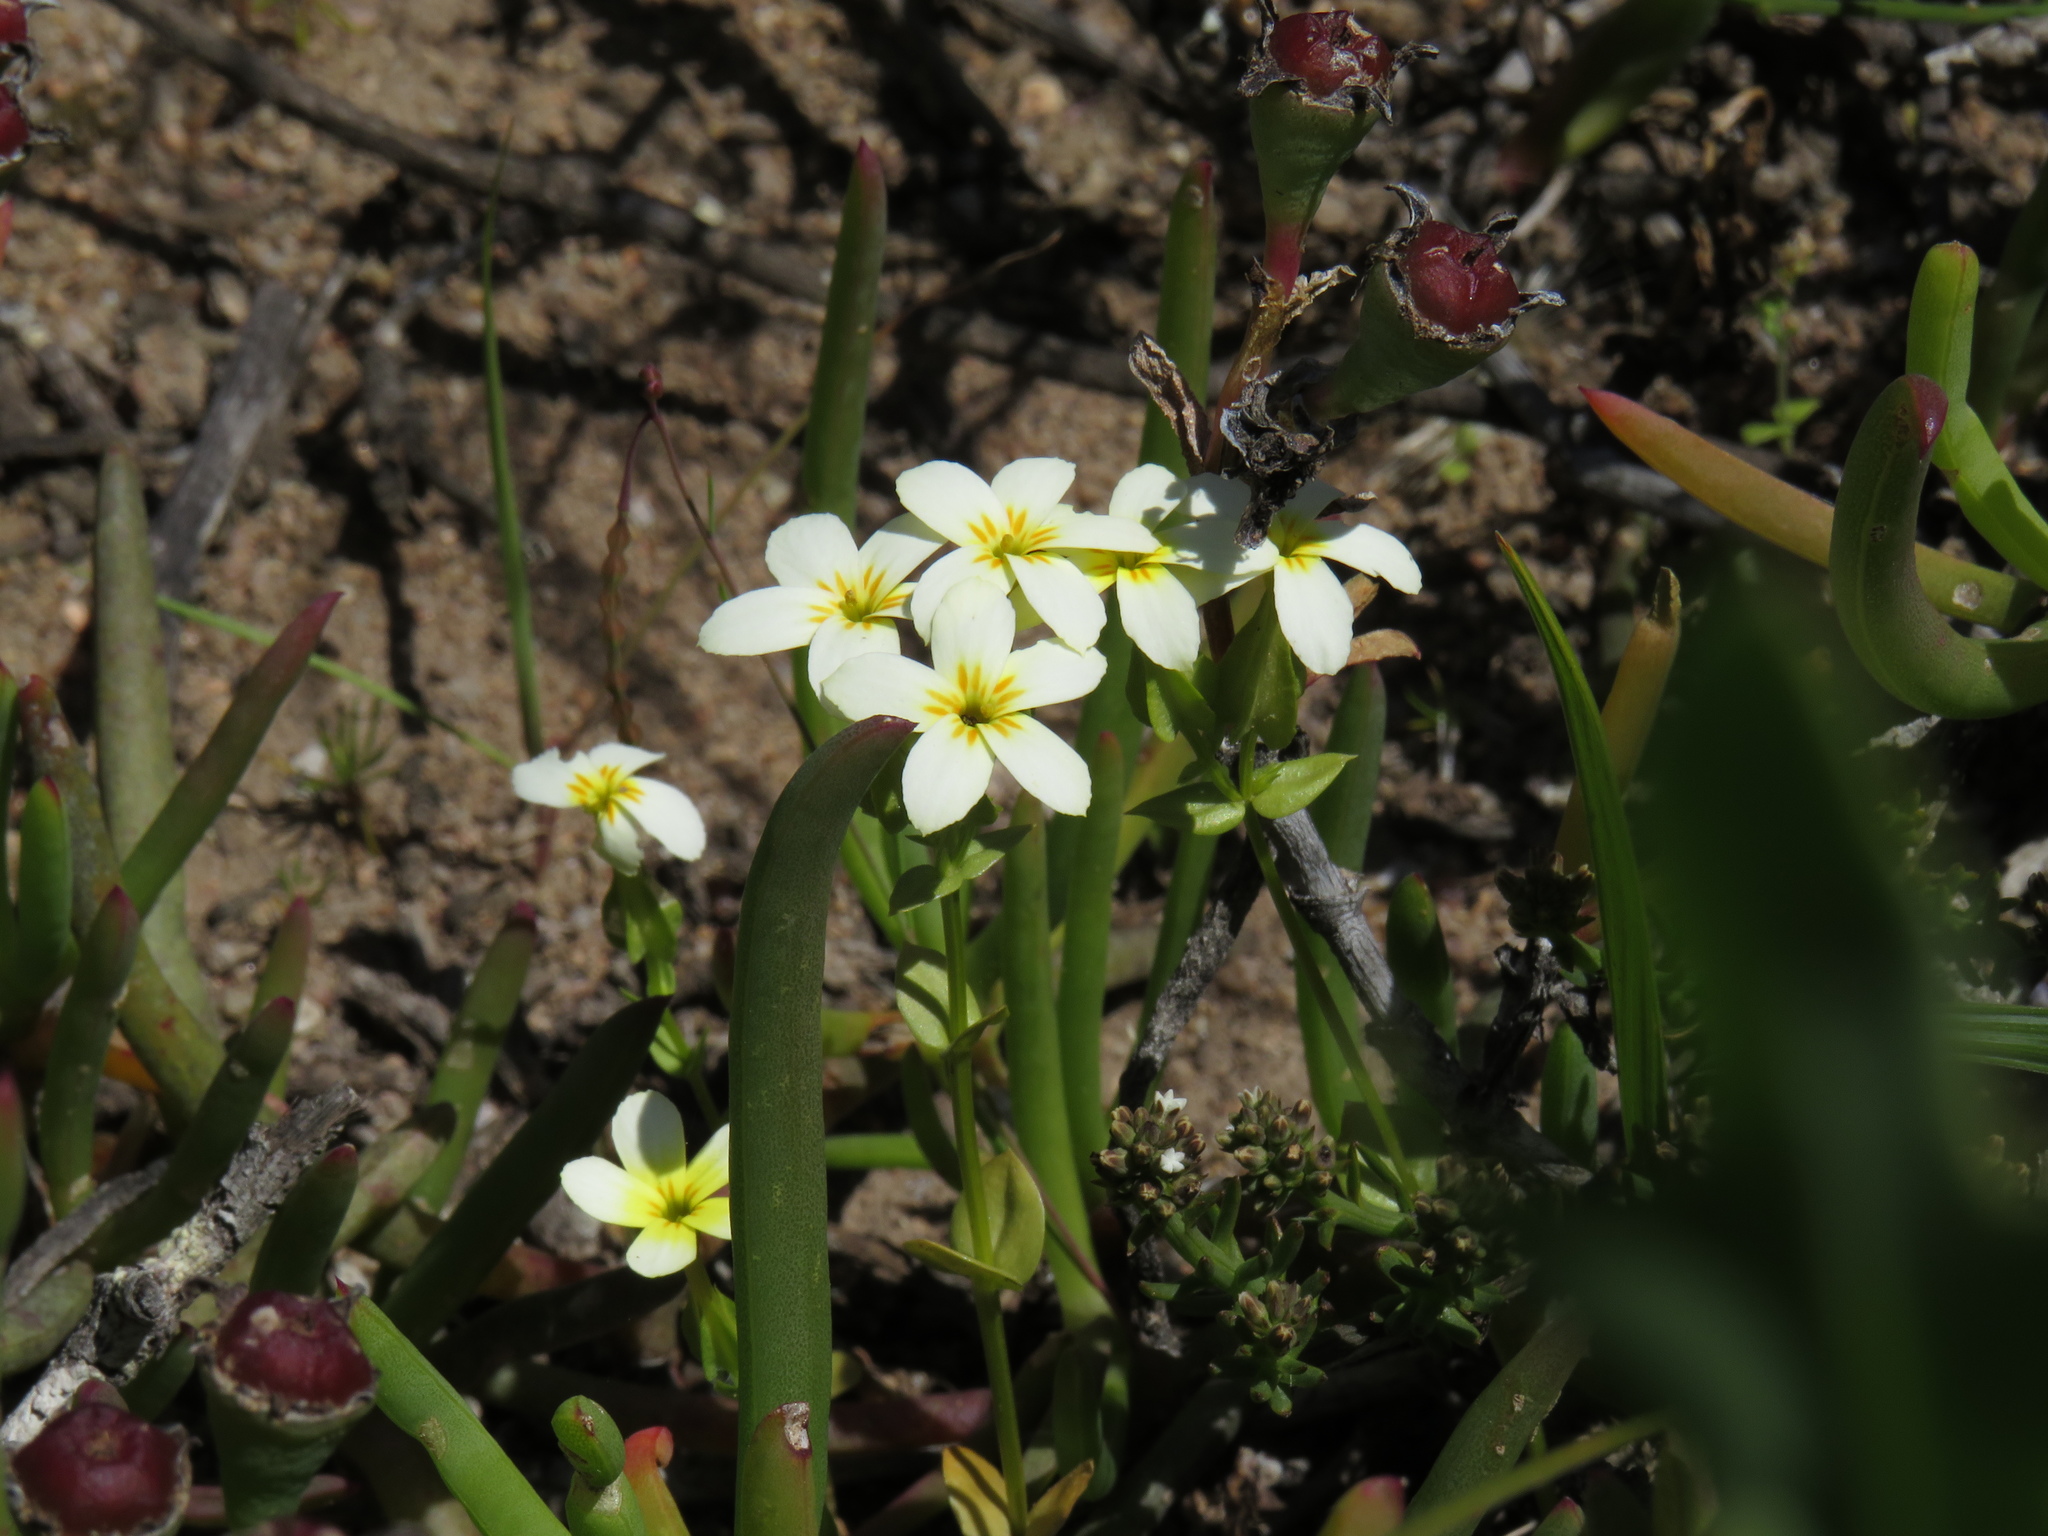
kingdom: Plantae
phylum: Tracheophyta
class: Magnoliopsida
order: Gentianales
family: Gentianaceae
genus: Sebaea
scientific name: Sebaea exacoides
